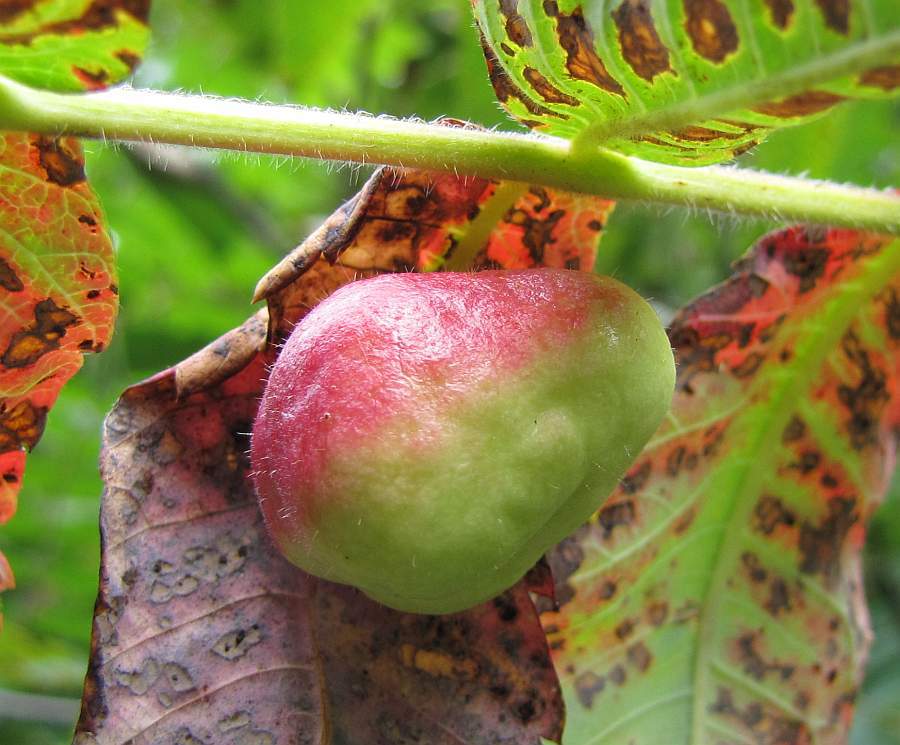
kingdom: Animalia
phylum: Arthropoda
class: Insecta
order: Hemiptera
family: Aphididae
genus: Melaphis
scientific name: Melaphis rhois
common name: Sumac gall aphid
